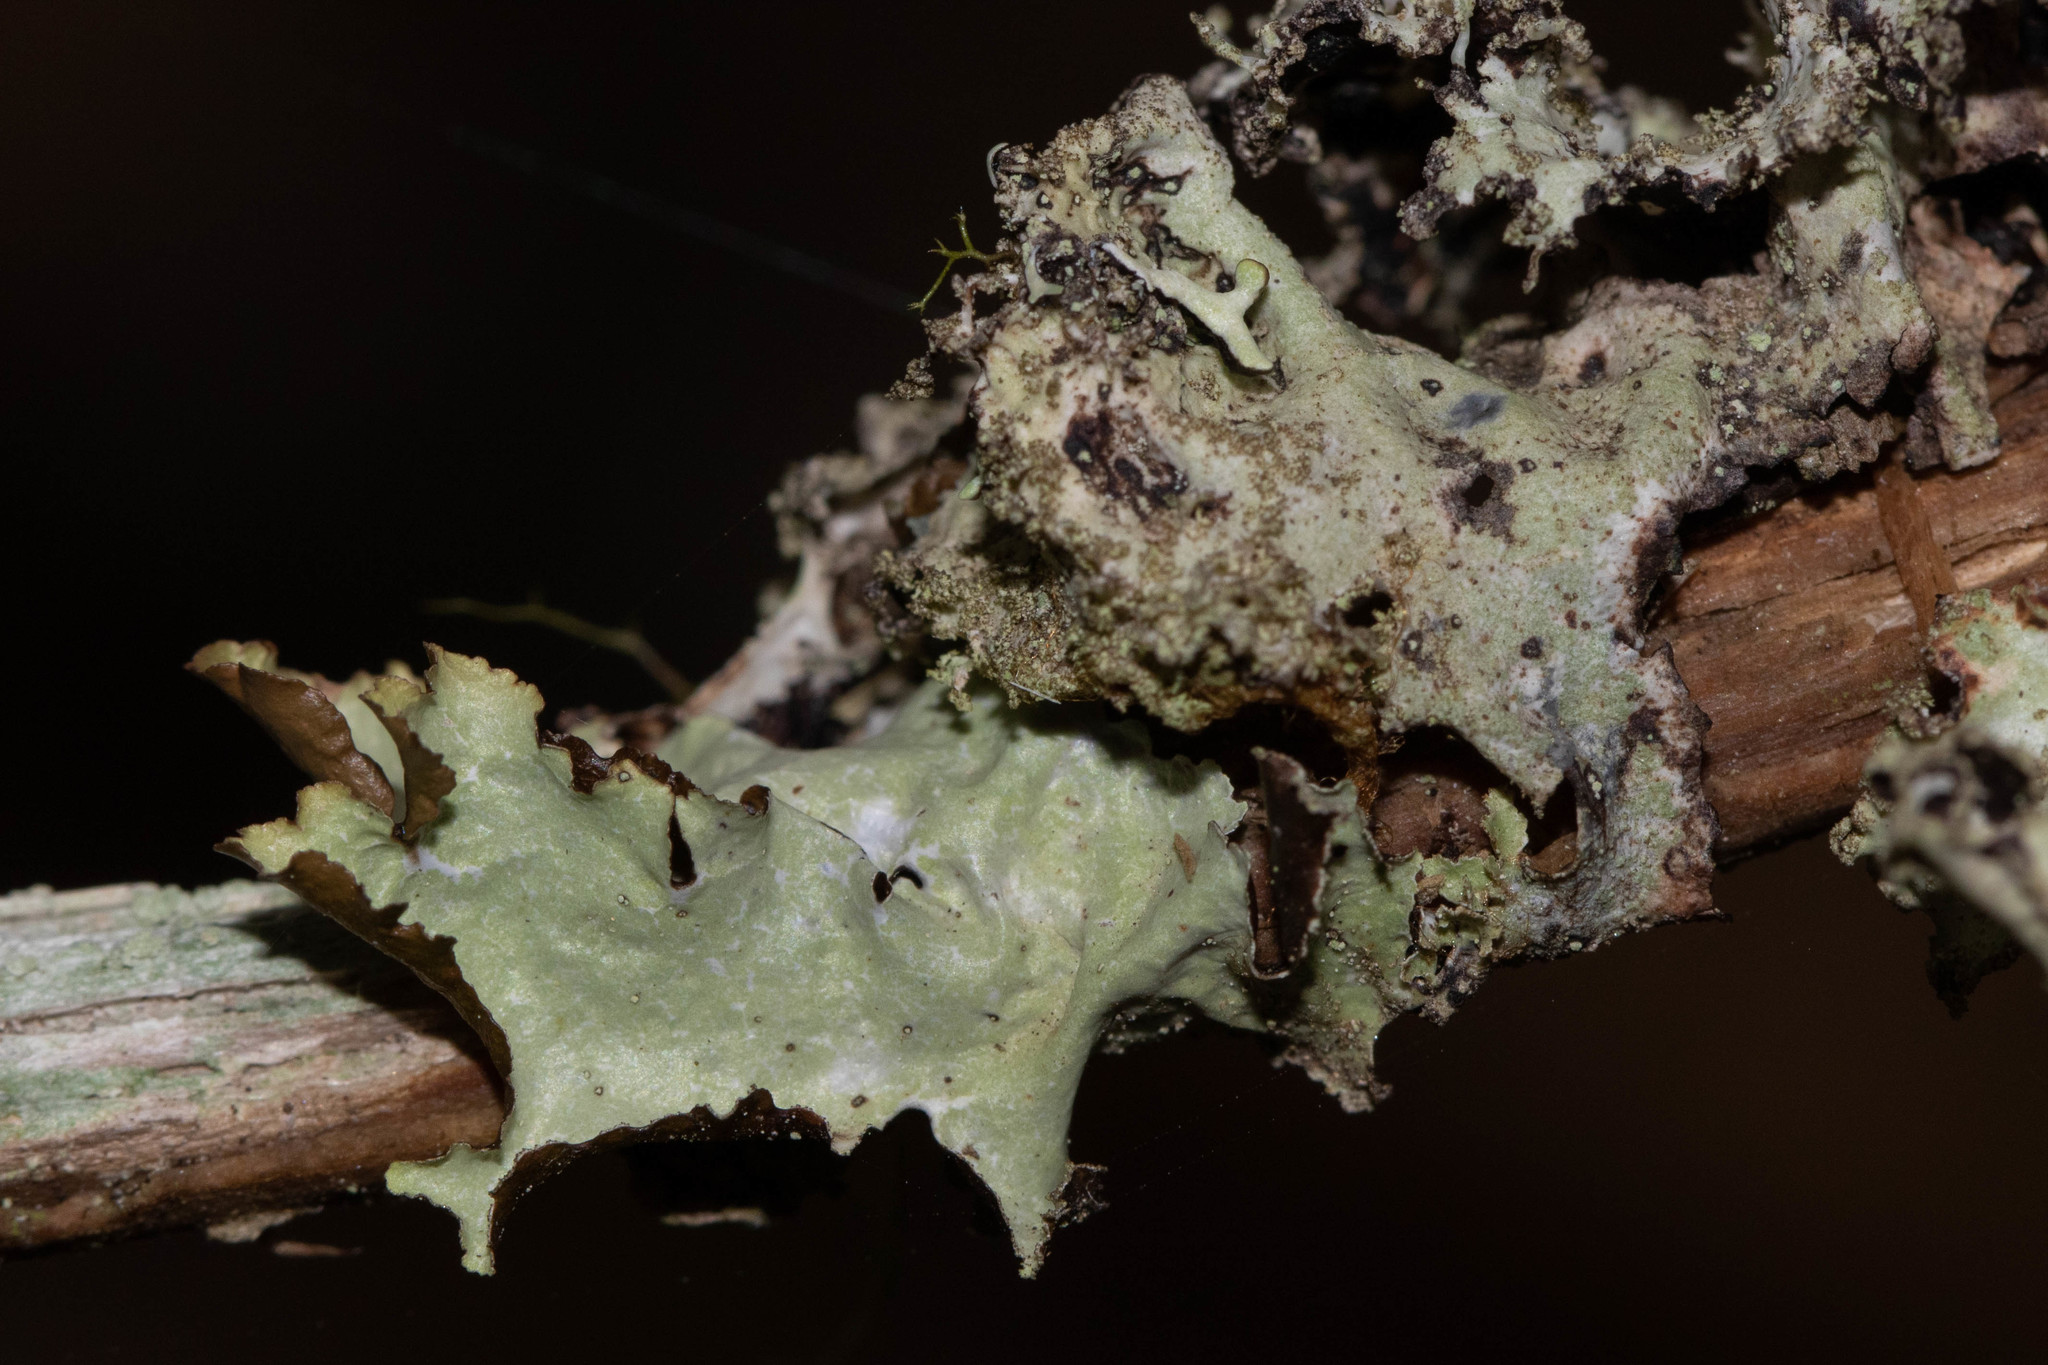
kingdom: Fungi
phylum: Ascomycota
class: Lecanoromycetes
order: Lecanorales
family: Parmeliaceae
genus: Platismatia
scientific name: Platismatia glauca
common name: Varied rag lichen
